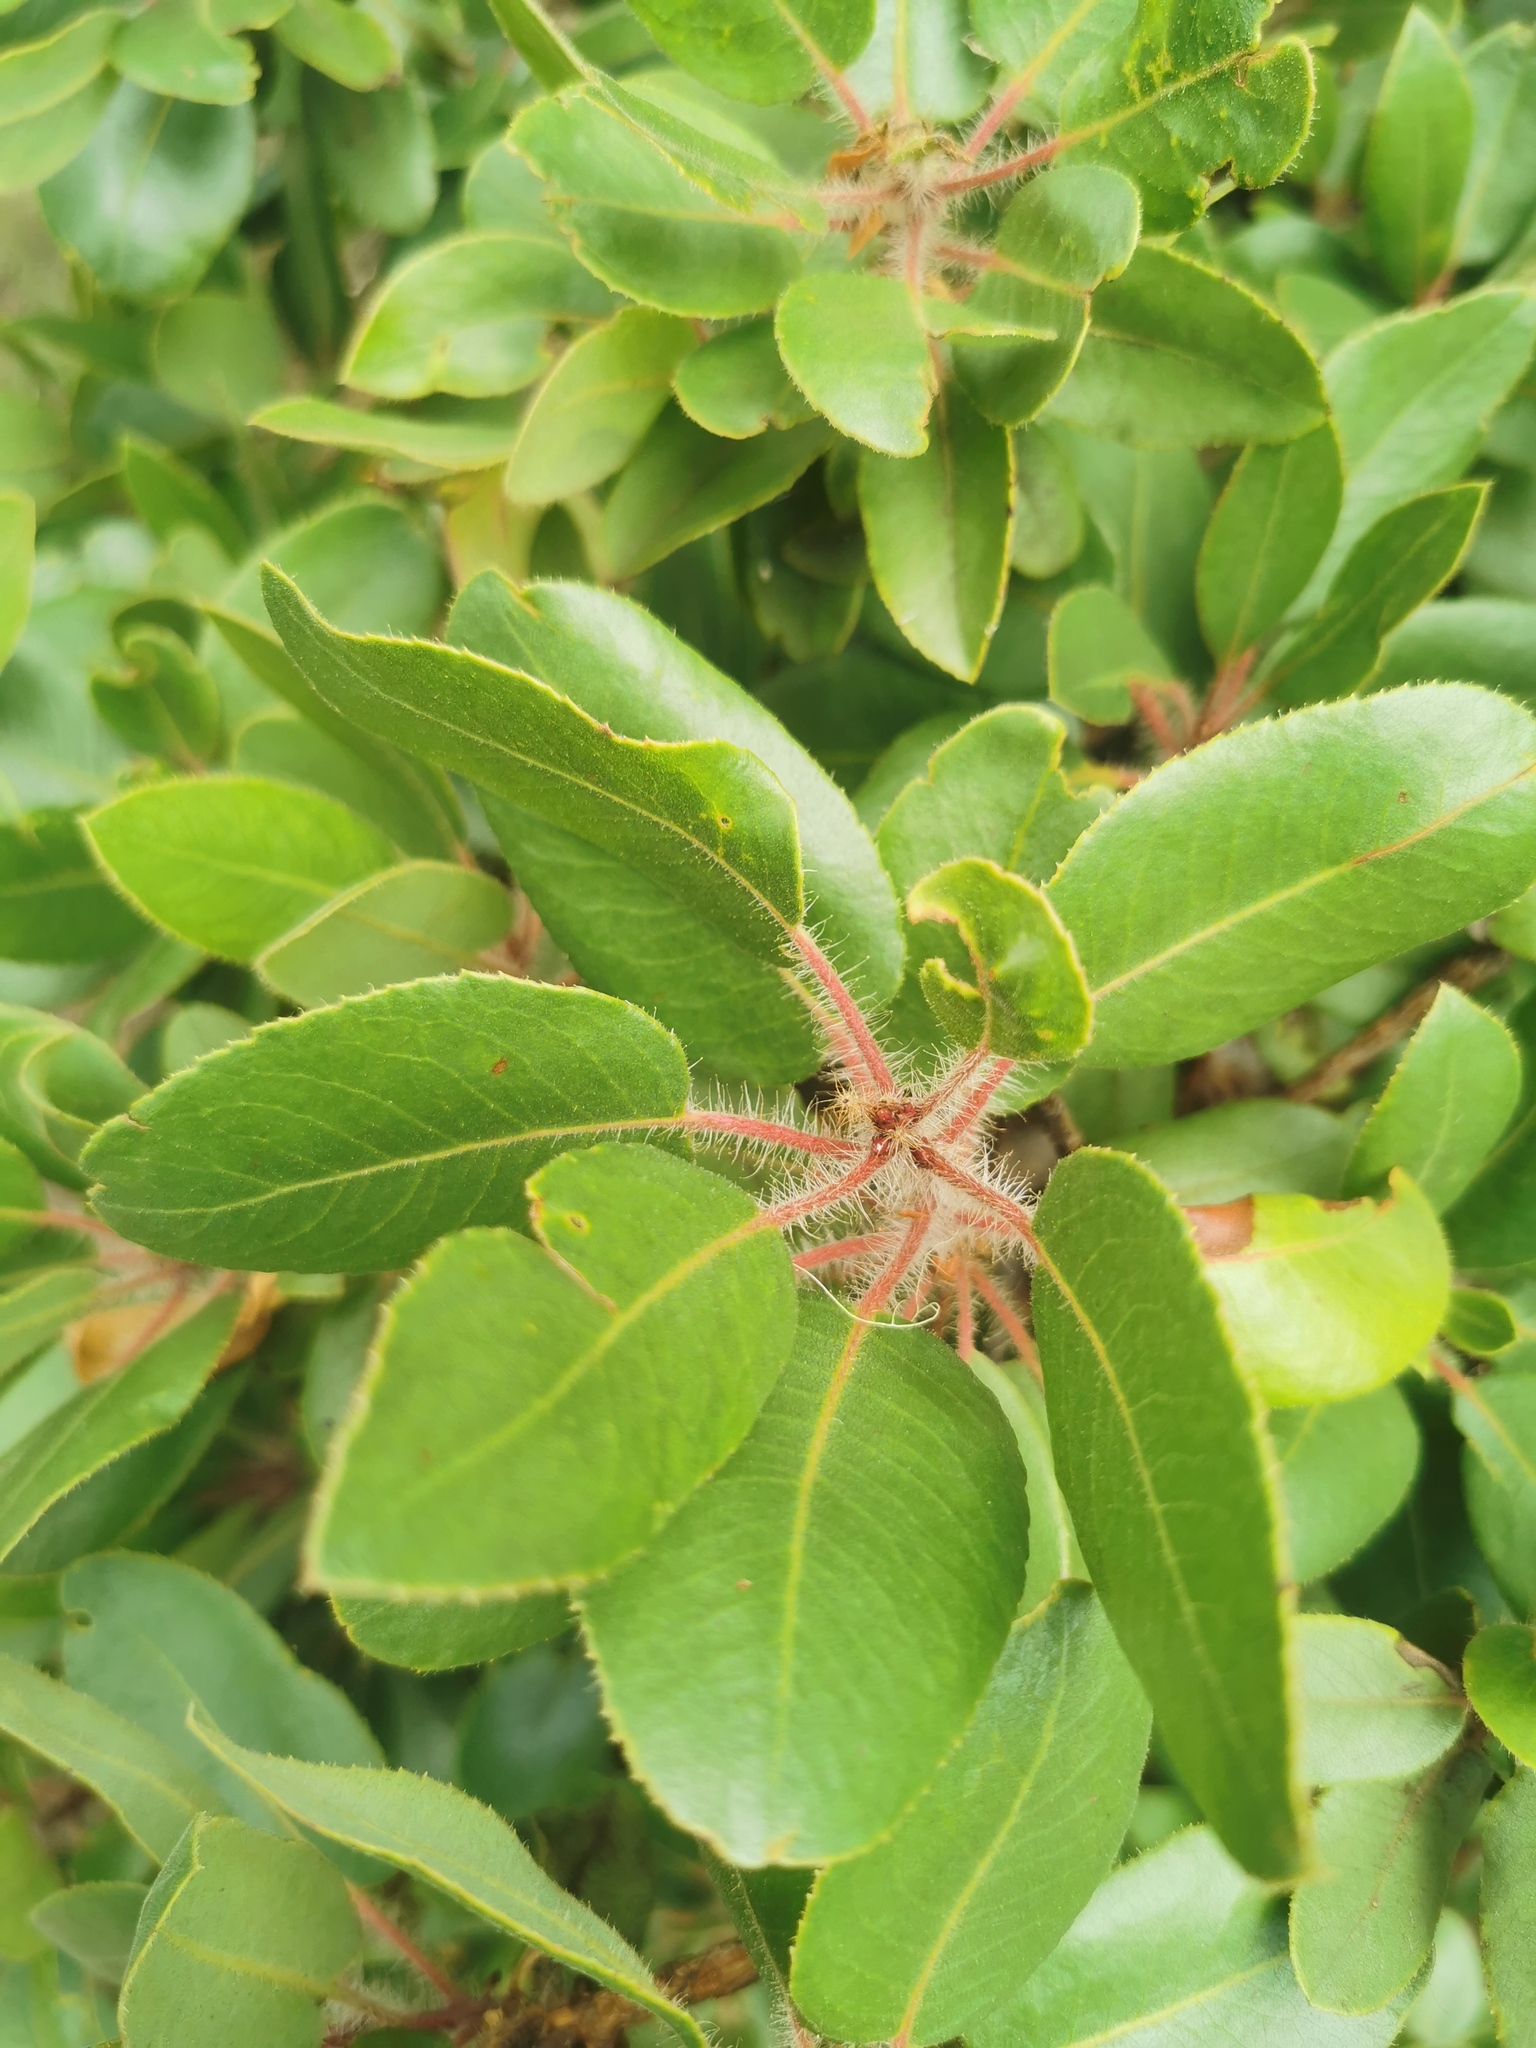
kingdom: Plantae
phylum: Tracheophyta
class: Magnoliopsida
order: Ericales
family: Ericaceae
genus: Arbutus
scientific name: Arbutus tessellata
